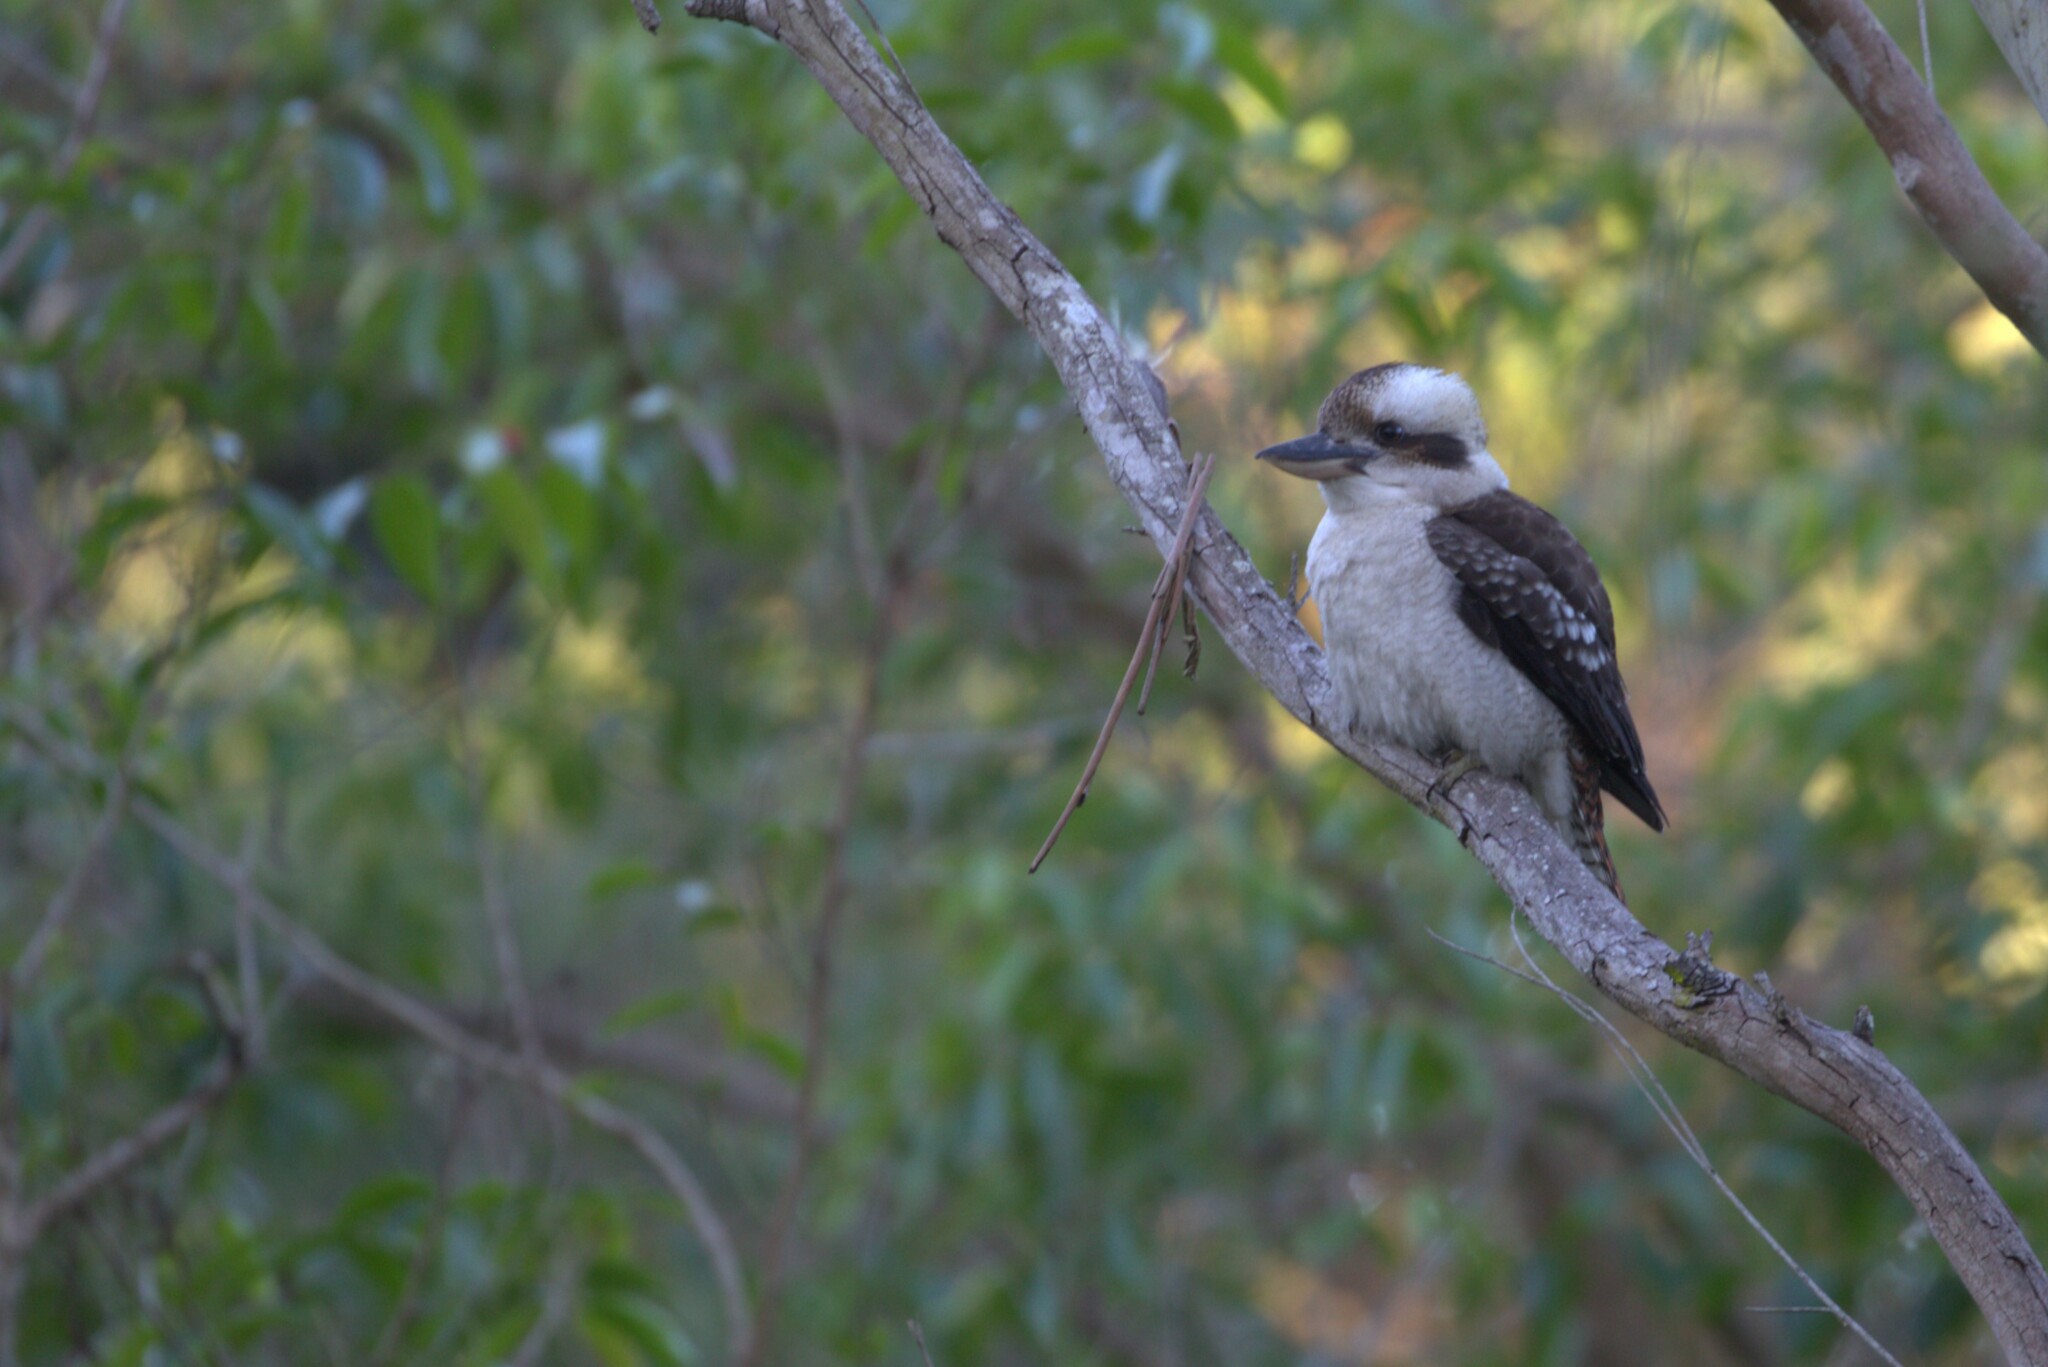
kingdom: Animalia
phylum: Chordata
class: Aves
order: Coraciiformes
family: Alcedinidae
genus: Dacelo
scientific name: Dacelo novaeguineae
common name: Laughing kookaburra
